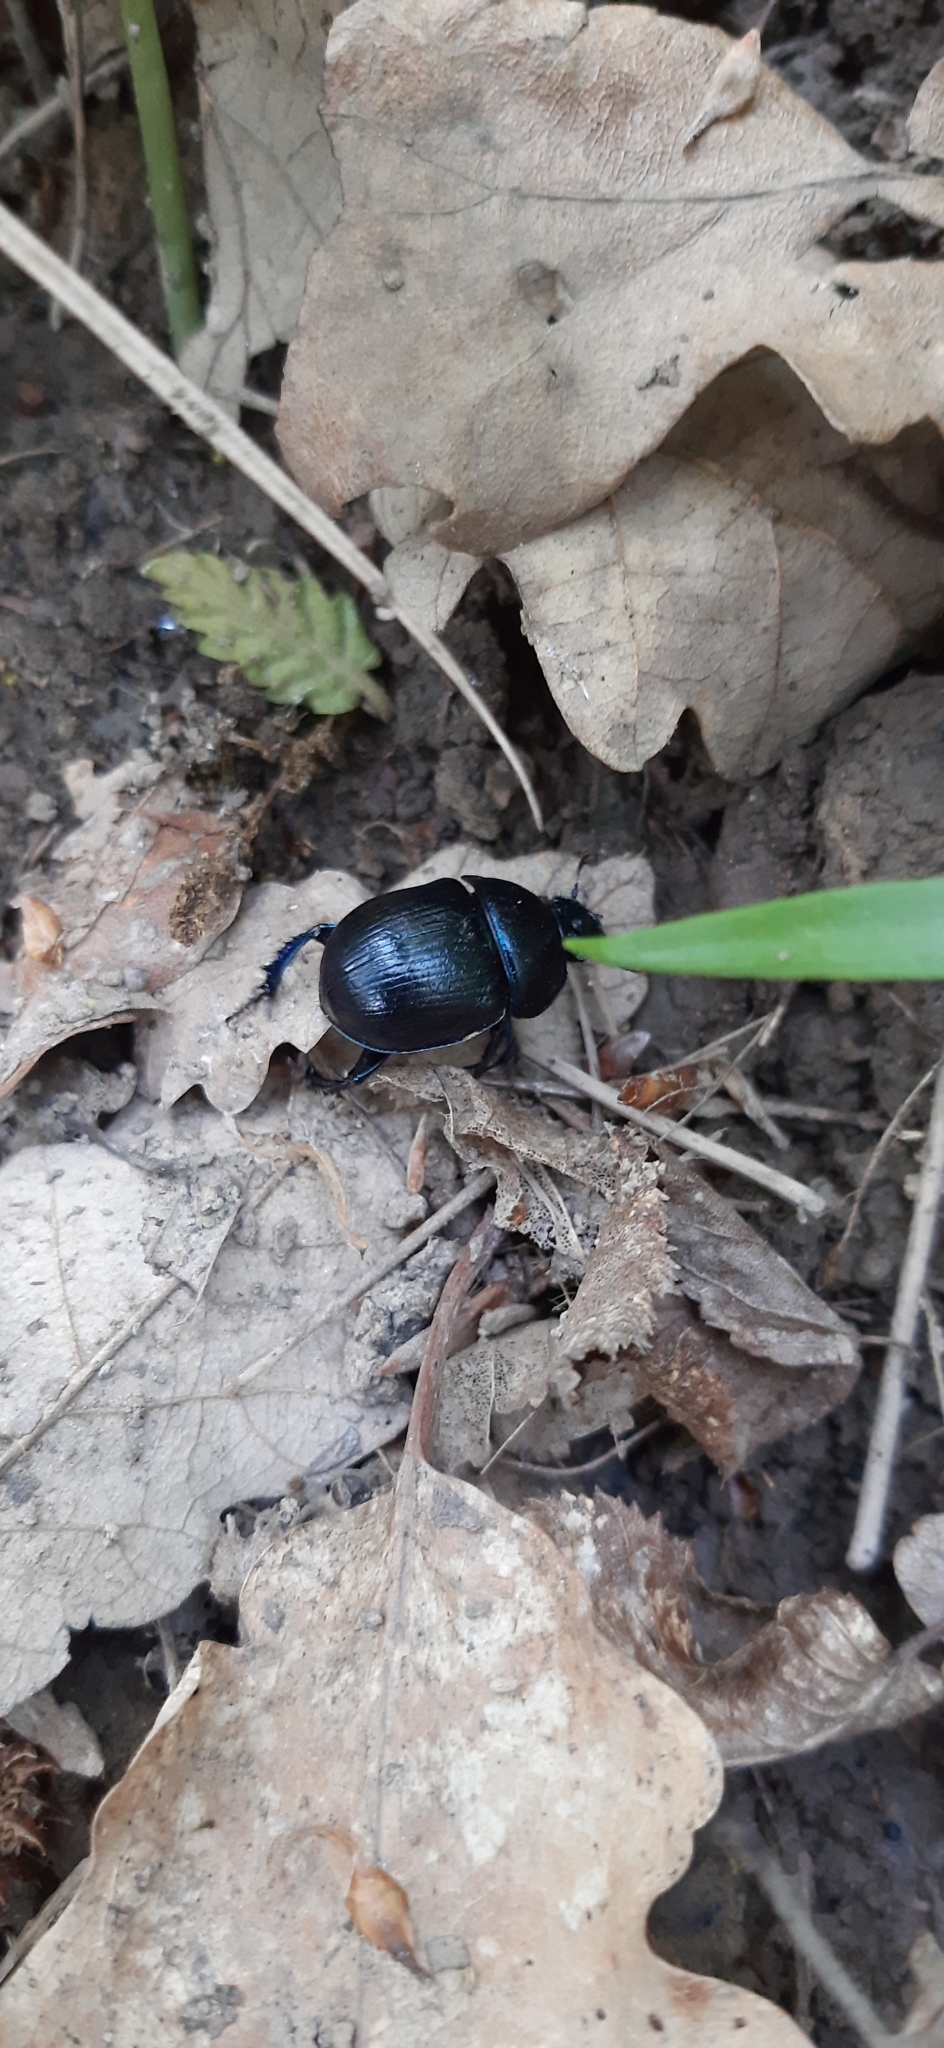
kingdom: Animalia
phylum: Arthropoda
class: Insecta
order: Coleoptera
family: Geotrupidae
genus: Anoplotrupes
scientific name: Anoplotrupes stercorosus
